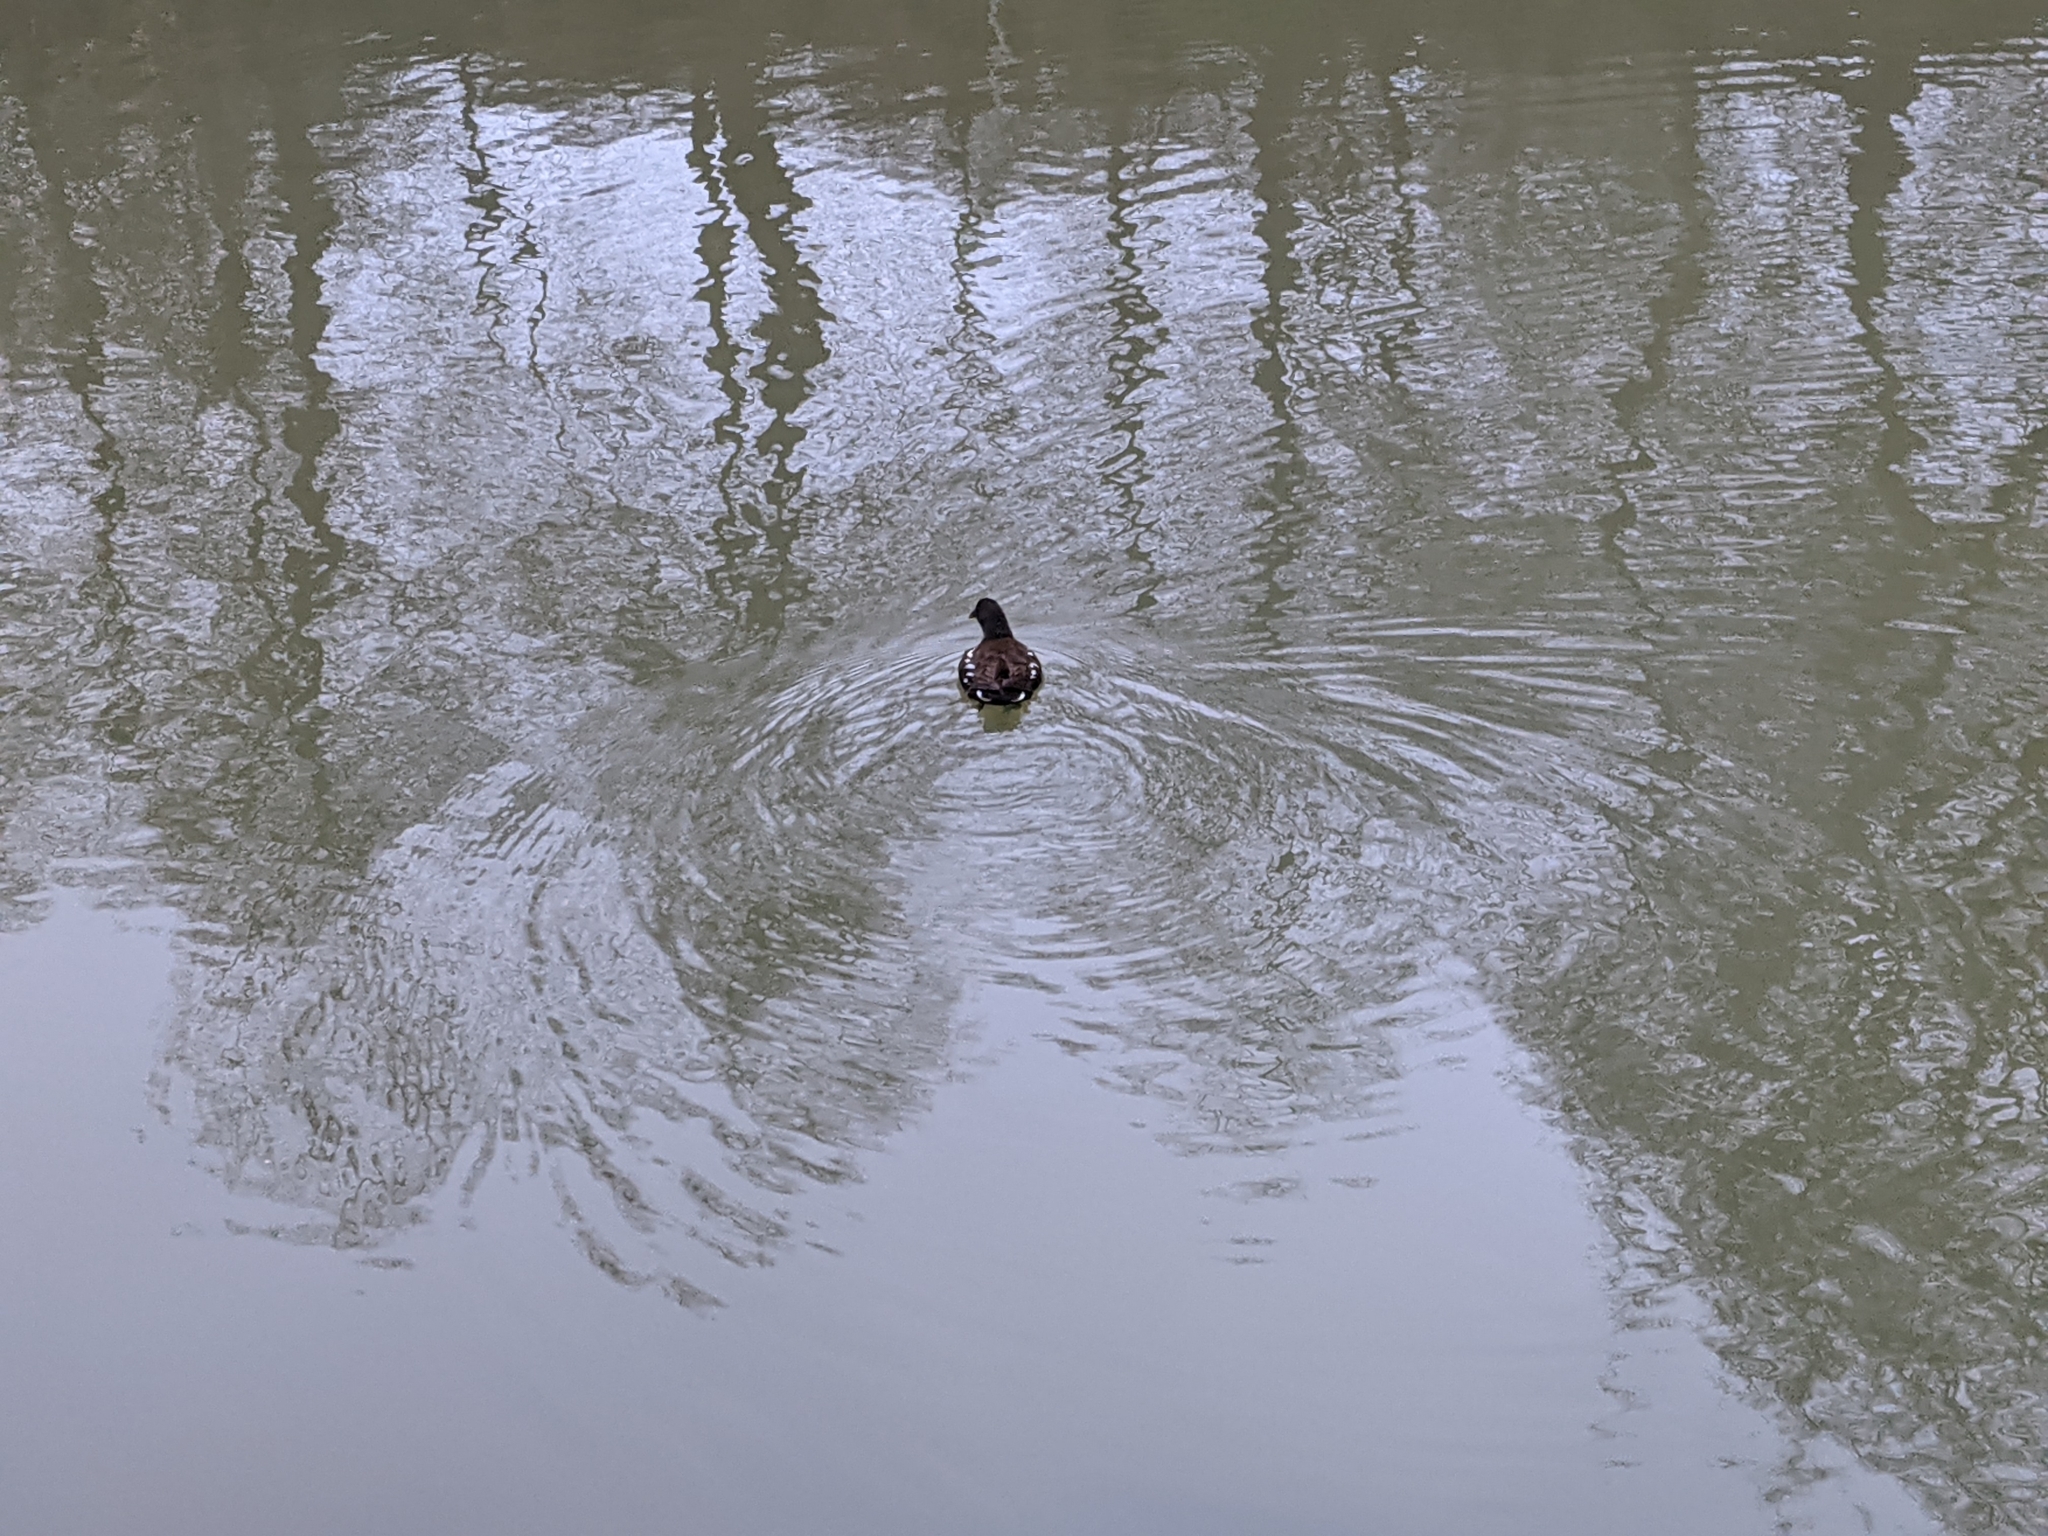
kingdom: Animalia
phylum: Chordata
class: Aves
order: Gruiformes
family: Rallidae
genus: Gallinula
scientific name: Gallinula chloropus
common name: Common moorhen
